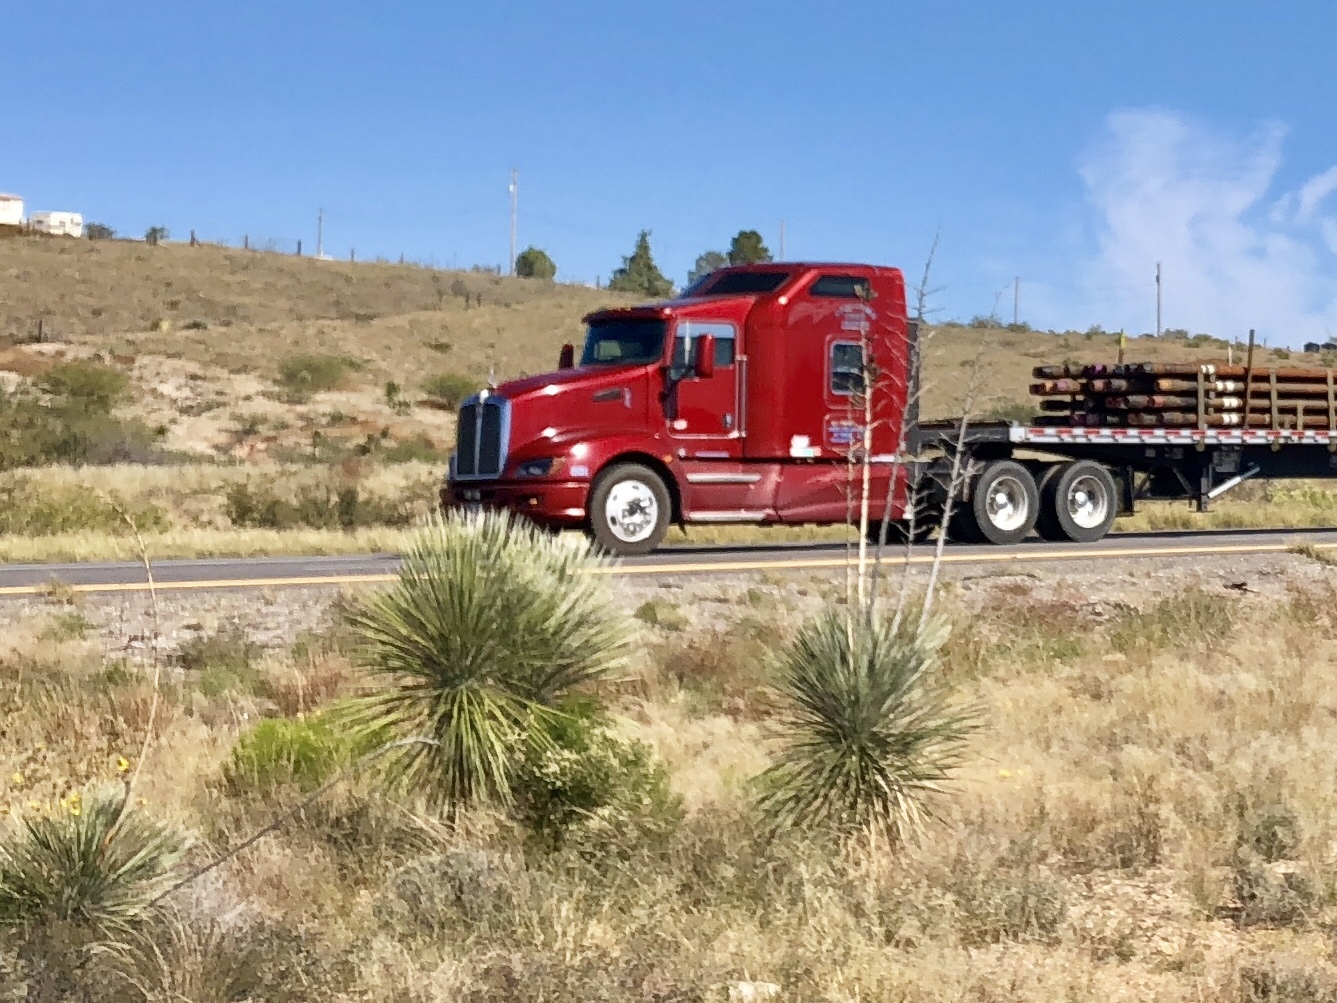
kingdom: Plantae
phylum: Tracheophyta
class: Liliopsida
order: Asparagales
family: Asparagaceae
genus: Yucca
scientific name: Yucca elata
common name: Palmella
